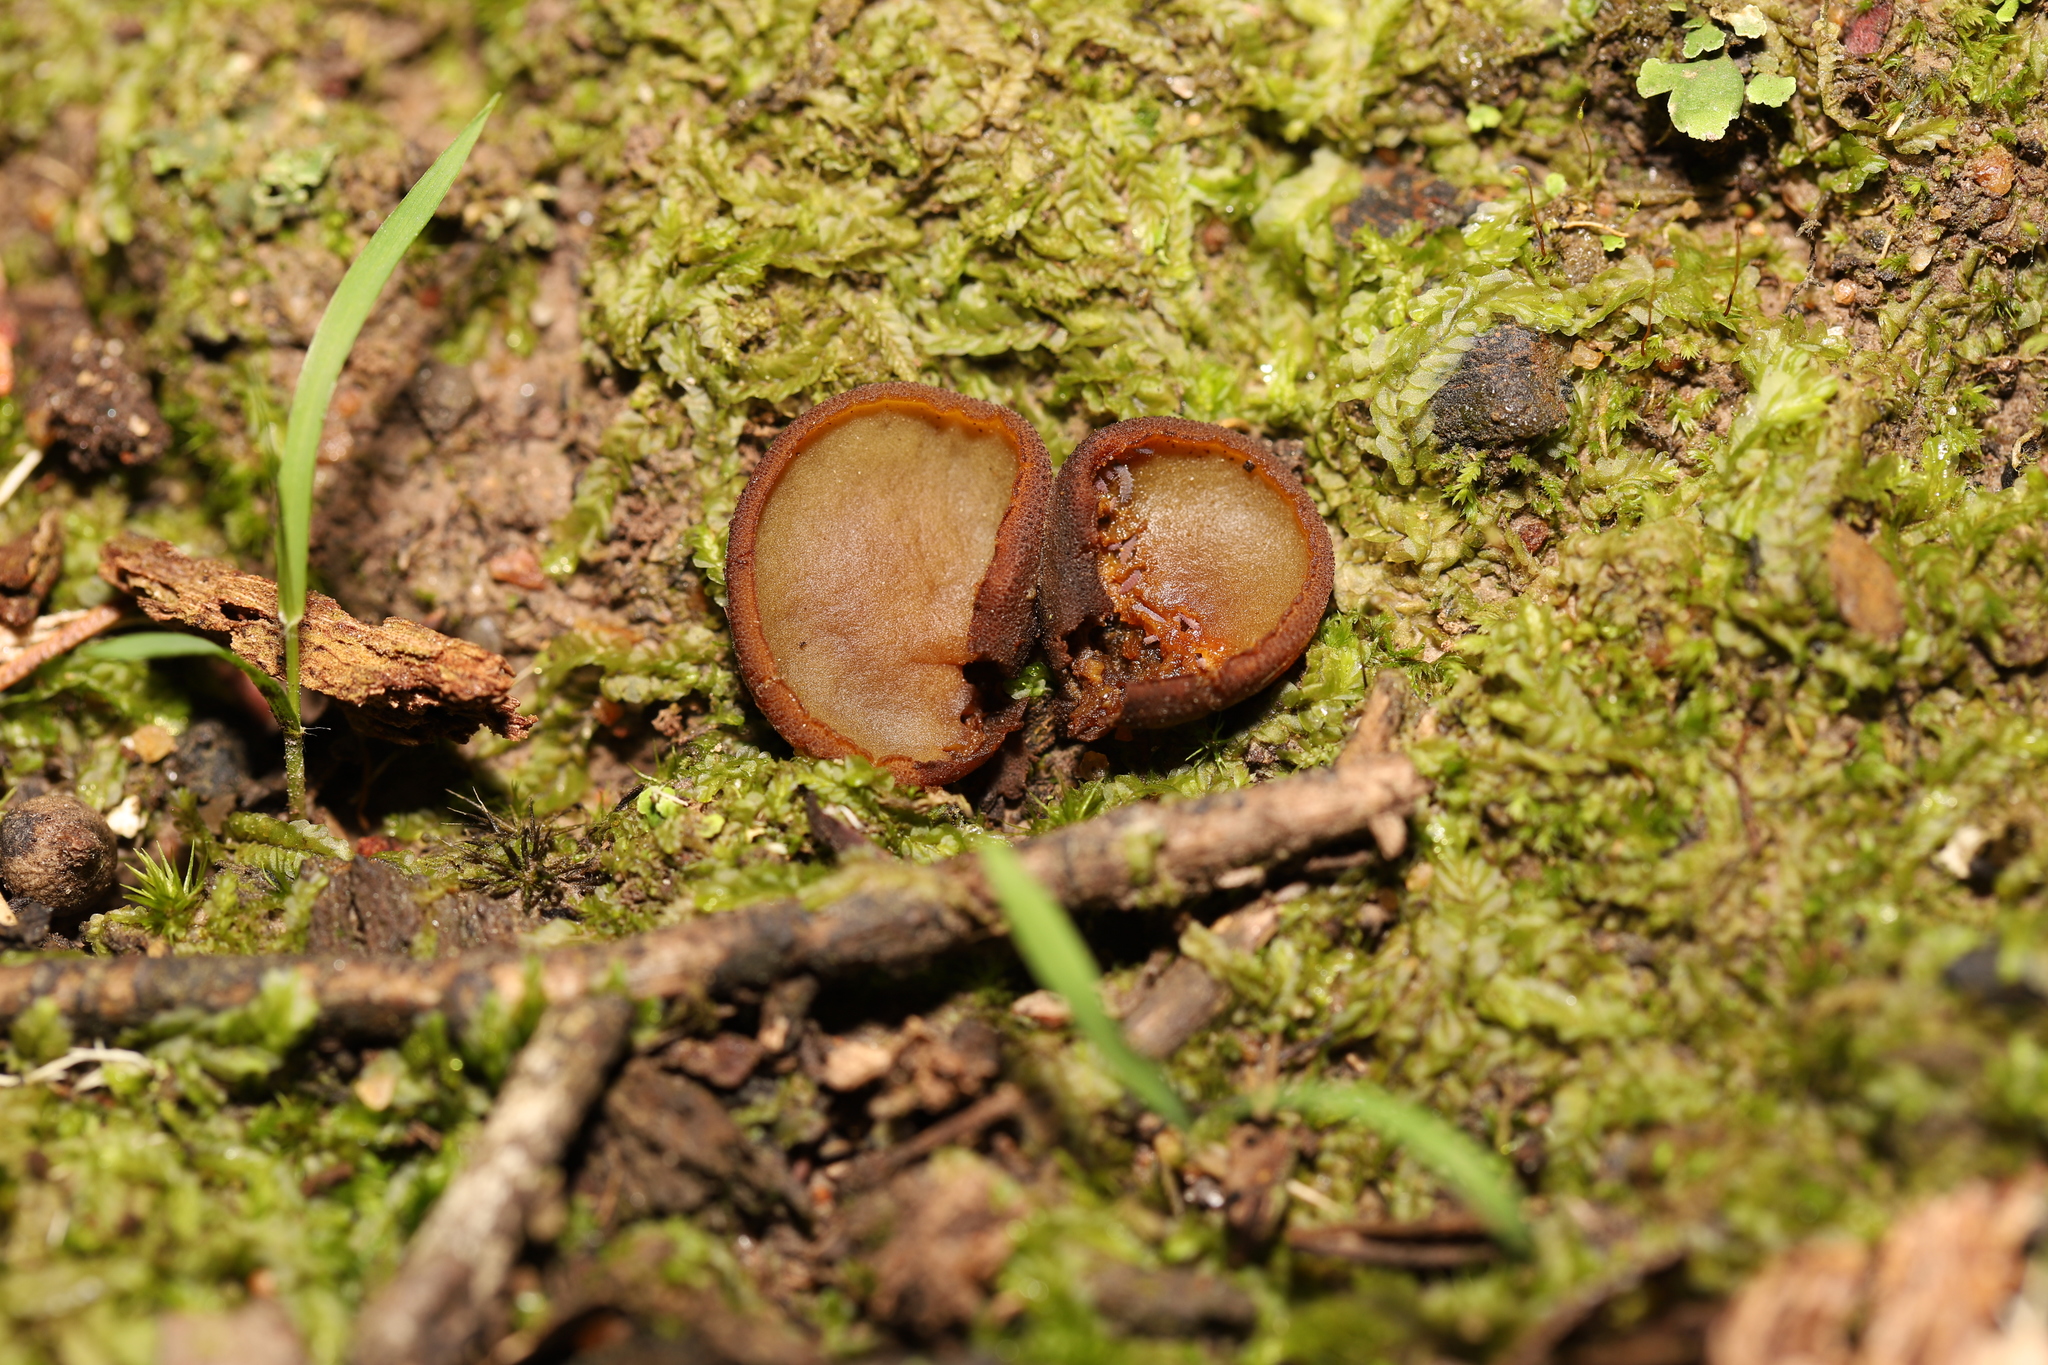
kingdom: Fungi
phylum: Ascomycota
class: Pezizomycetes
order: Pezizales
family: Pyronemataceae
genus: Aleurina
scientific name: Aleurina ferruginea
